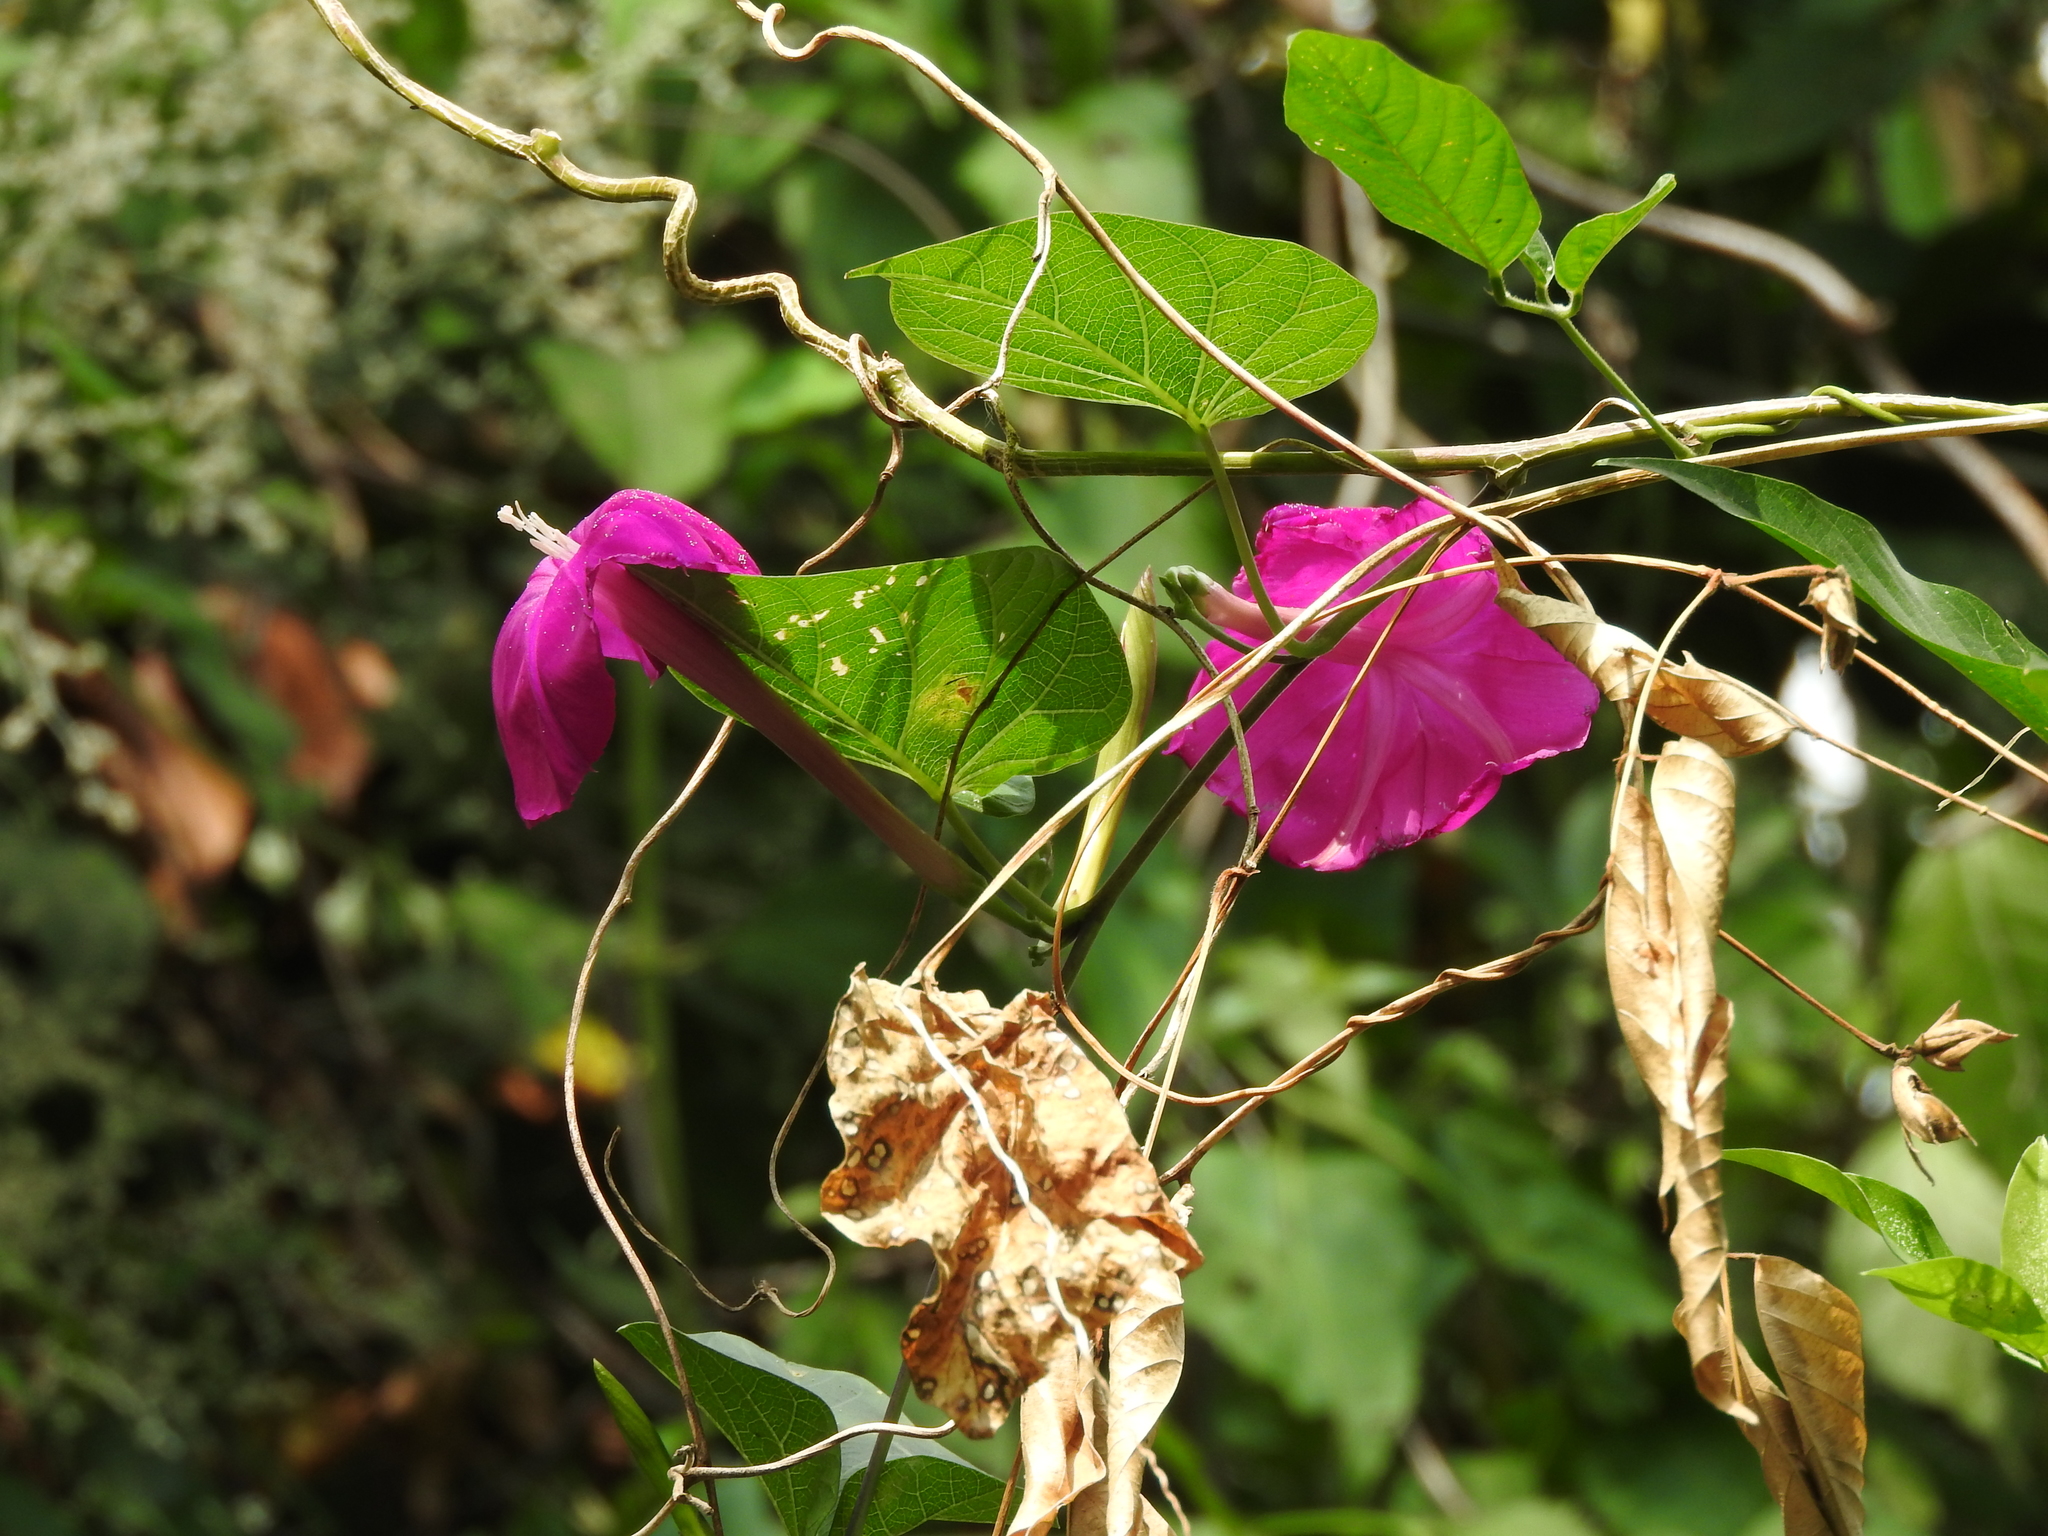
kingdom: Plantae
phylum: Tracheophyta
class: Magnoliopsida
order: Solanales
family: Convolvulaceae
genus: Ipomoea
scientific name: Ipomoea dumosa
